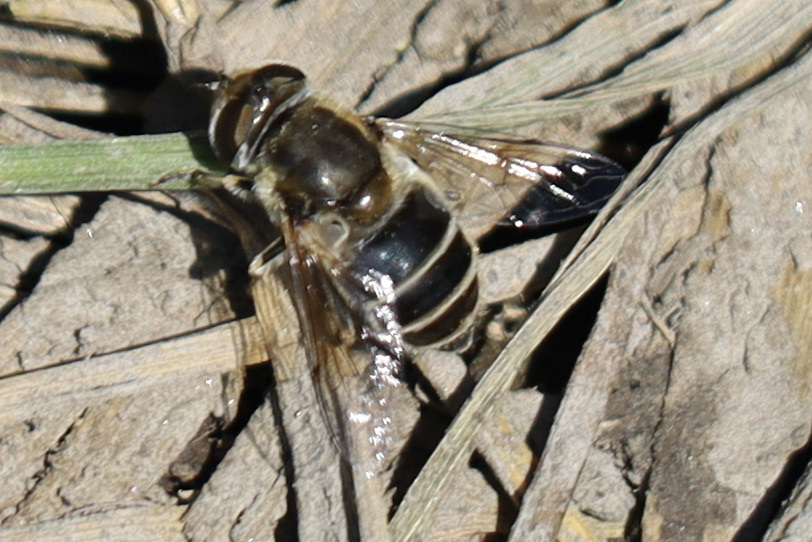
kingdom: Animalia
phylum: Arthropoda
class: Insecta
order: Diptera
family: Syrphidae
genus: Eristalis
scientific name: Eristalis arbustorum
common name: Hover fly
